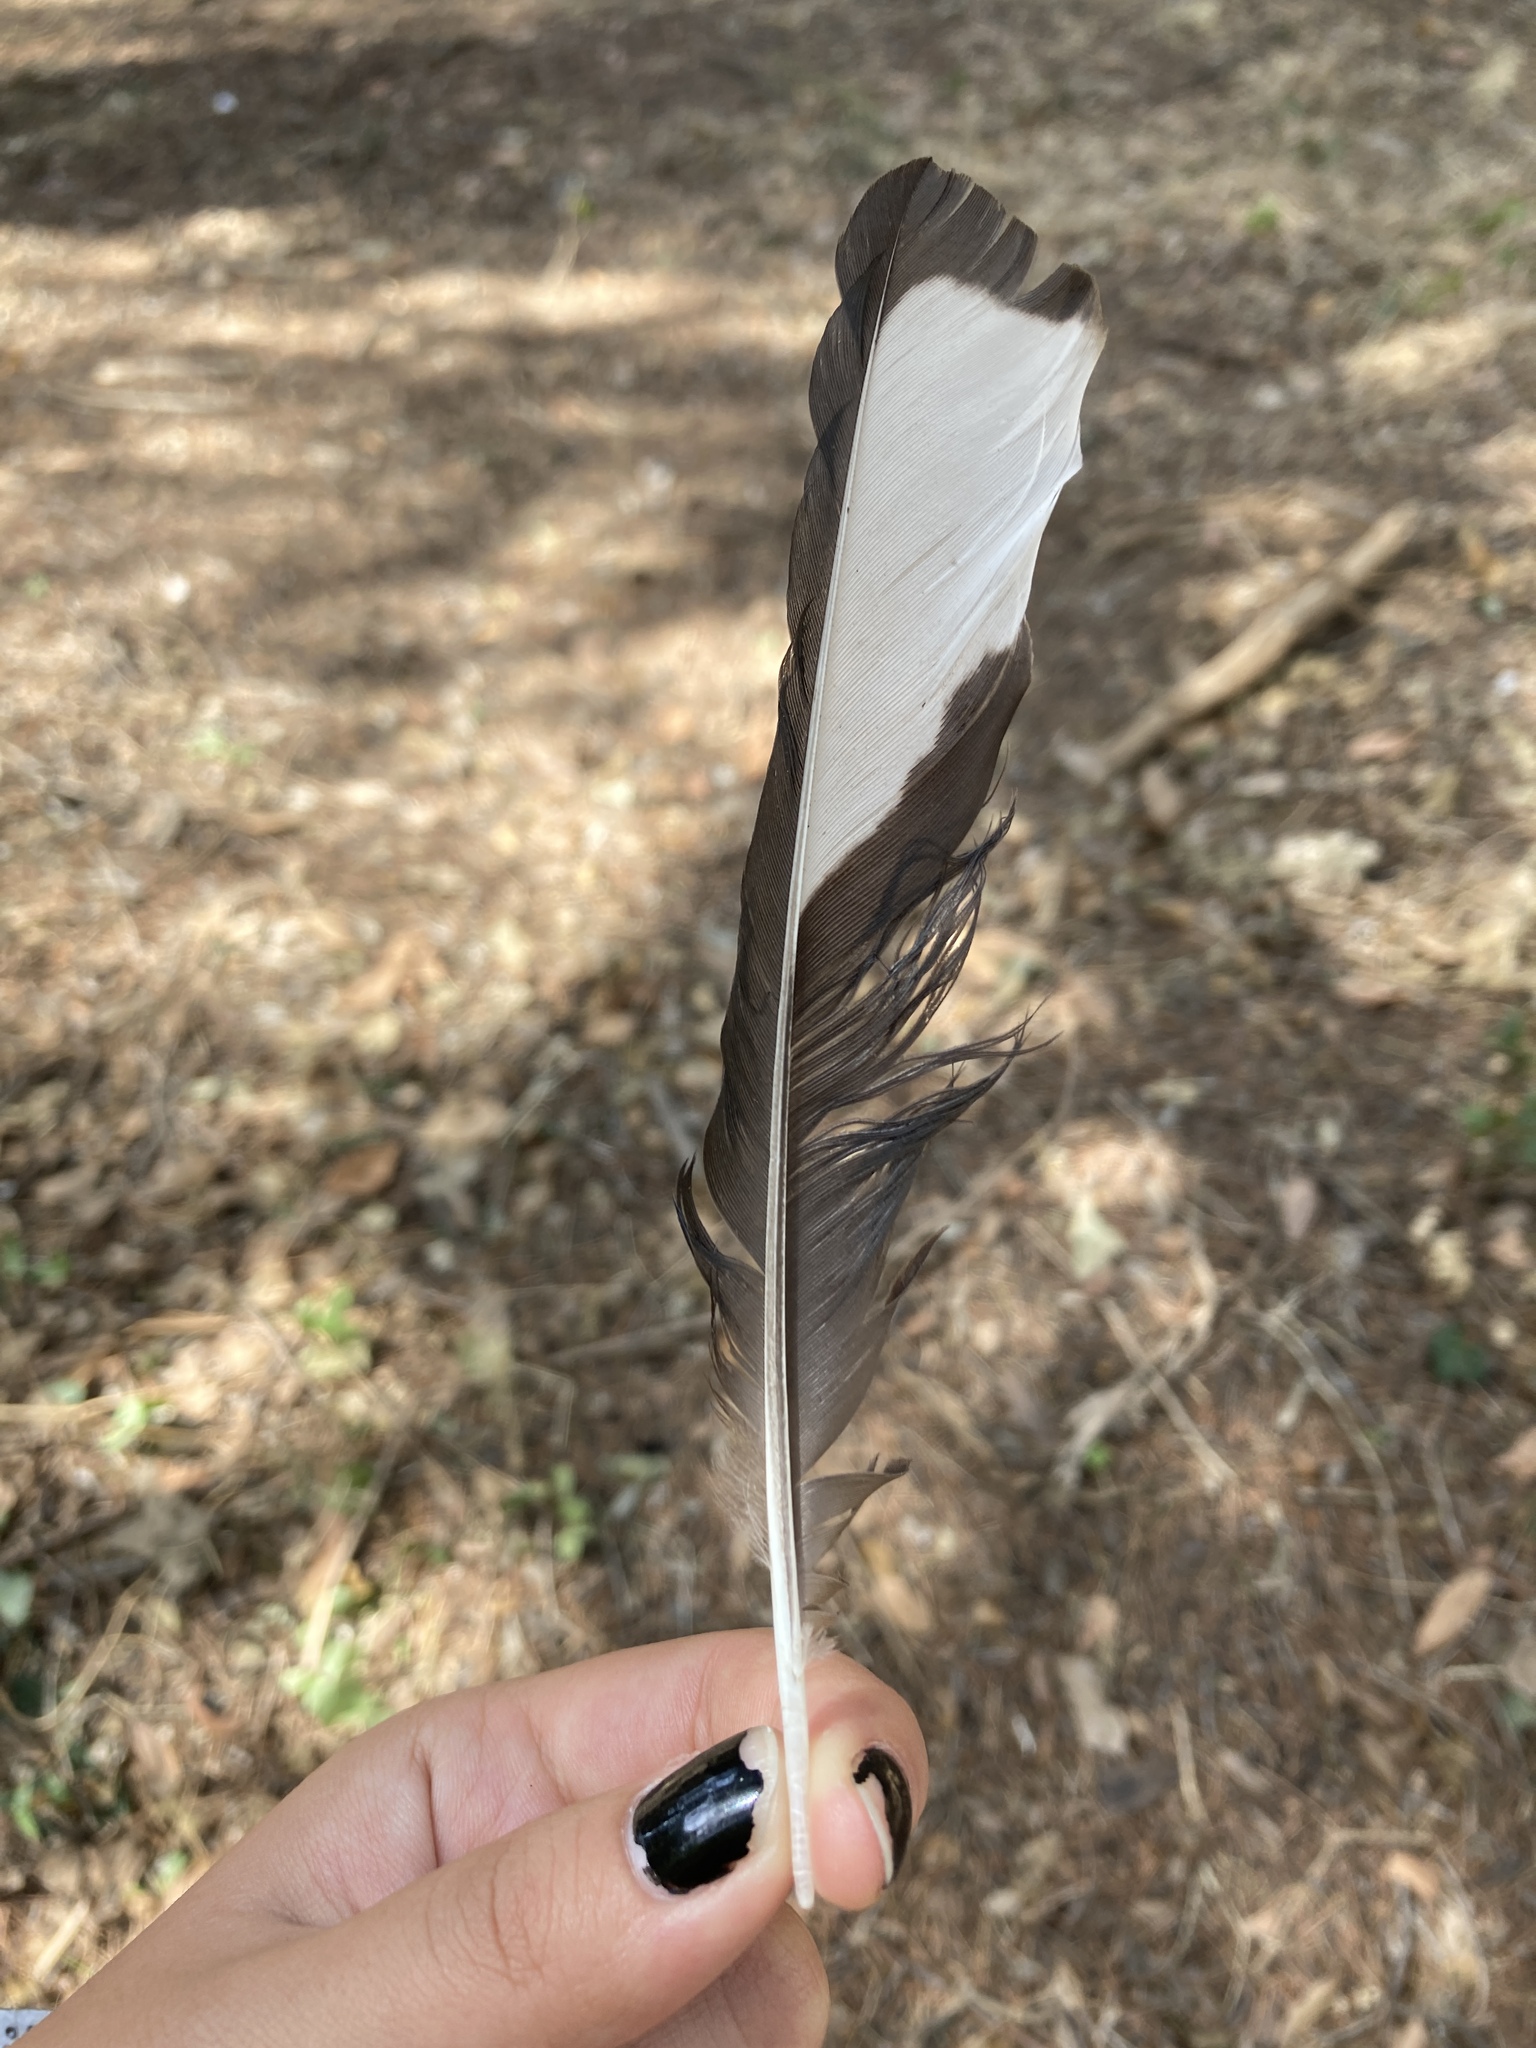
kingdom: Animalia
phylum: Chordata
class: Aves
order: Passeriformes
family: Corvidae
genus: Pica
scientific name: Pica pica
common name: Eurasian magpie
